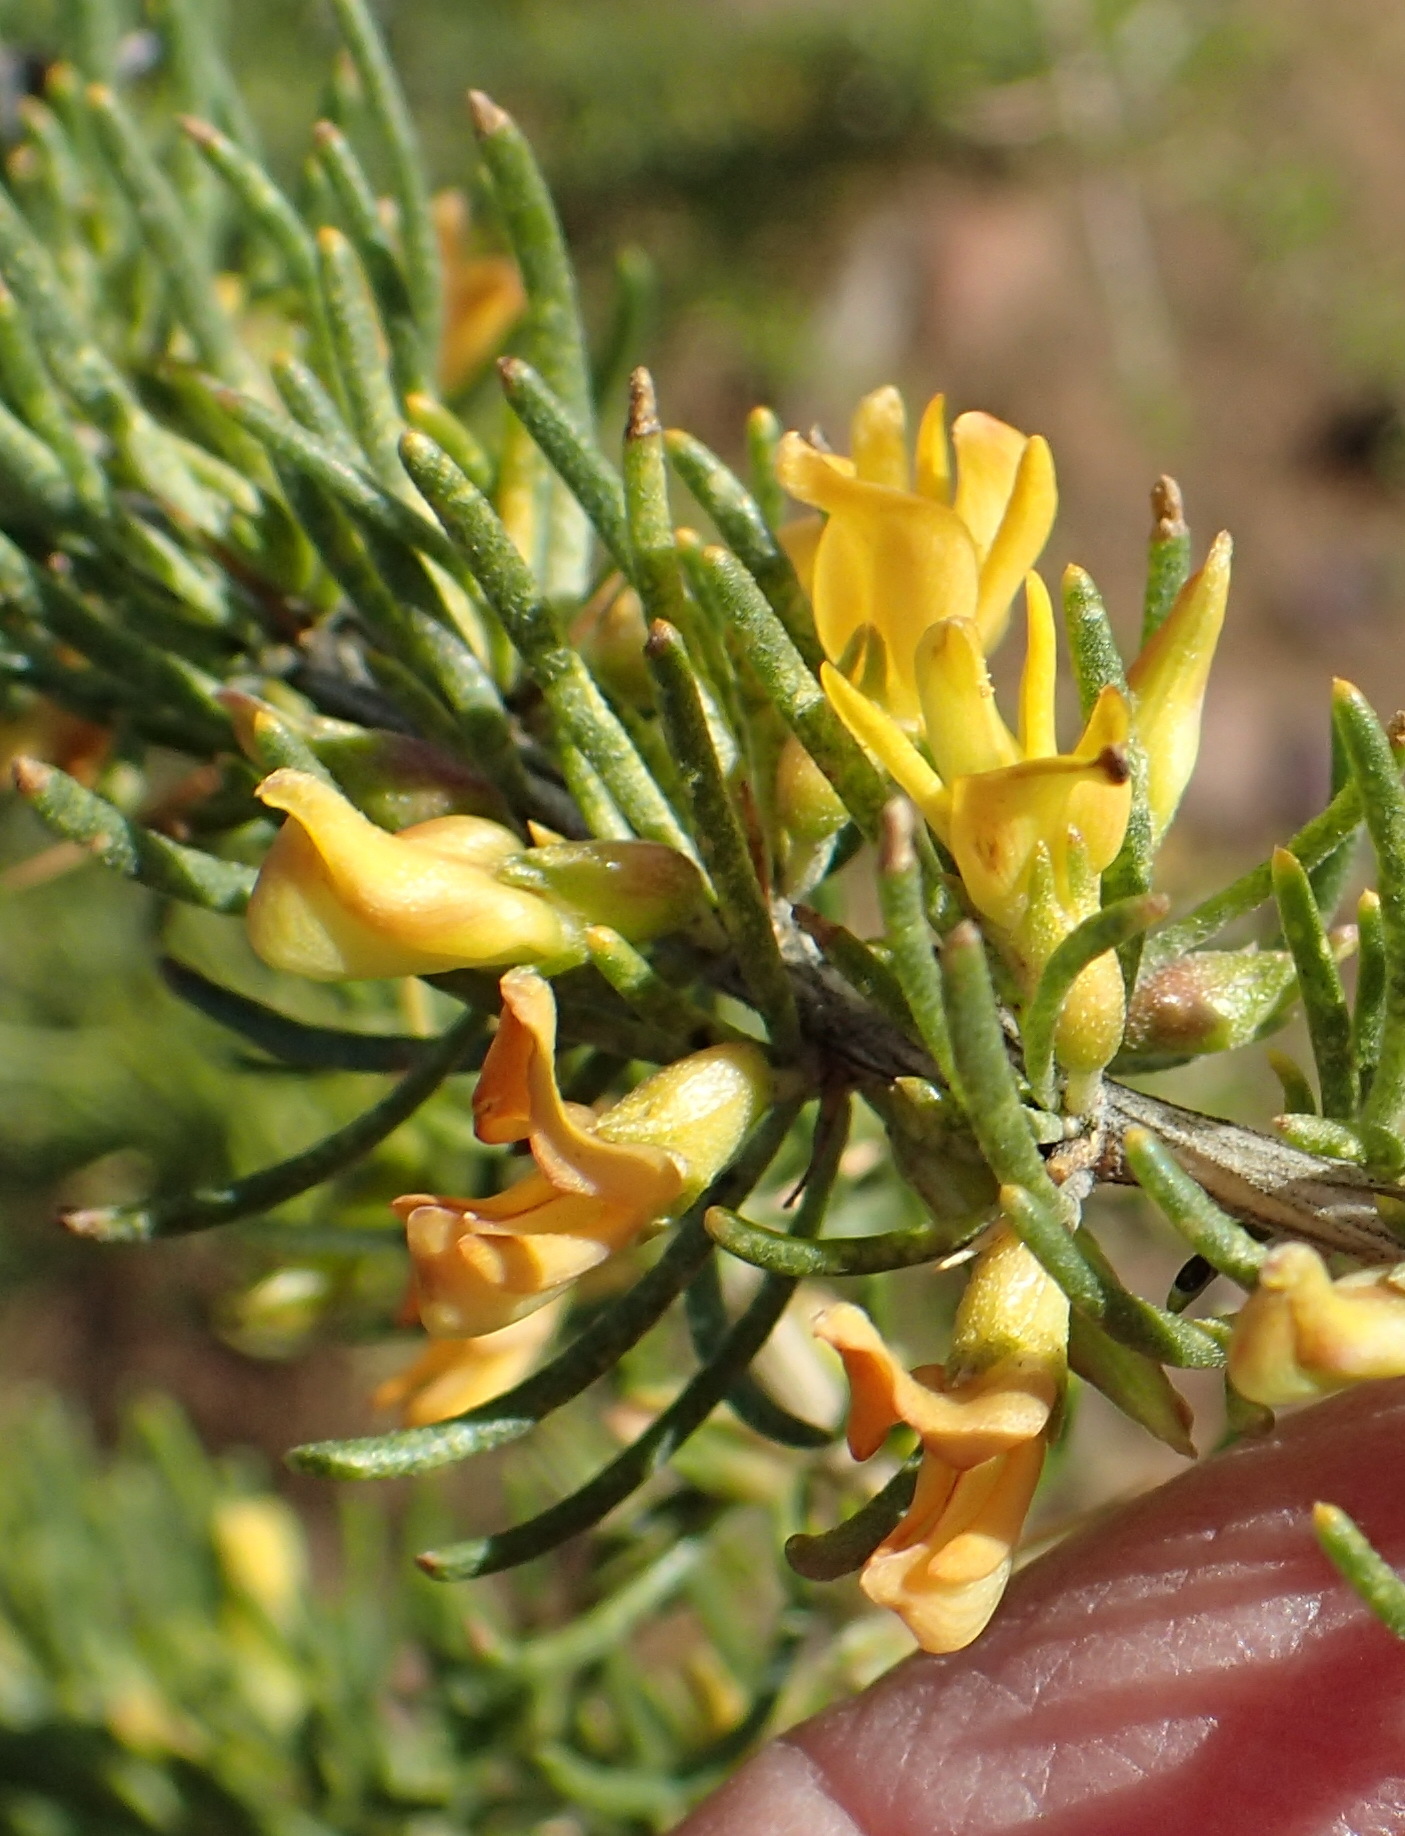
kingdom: Plantae
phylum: Tracheophyta
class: Magnoliopsida
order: Fabales
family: Fabaceae
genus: Aspalathus
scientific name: Aspalathus spinosa
